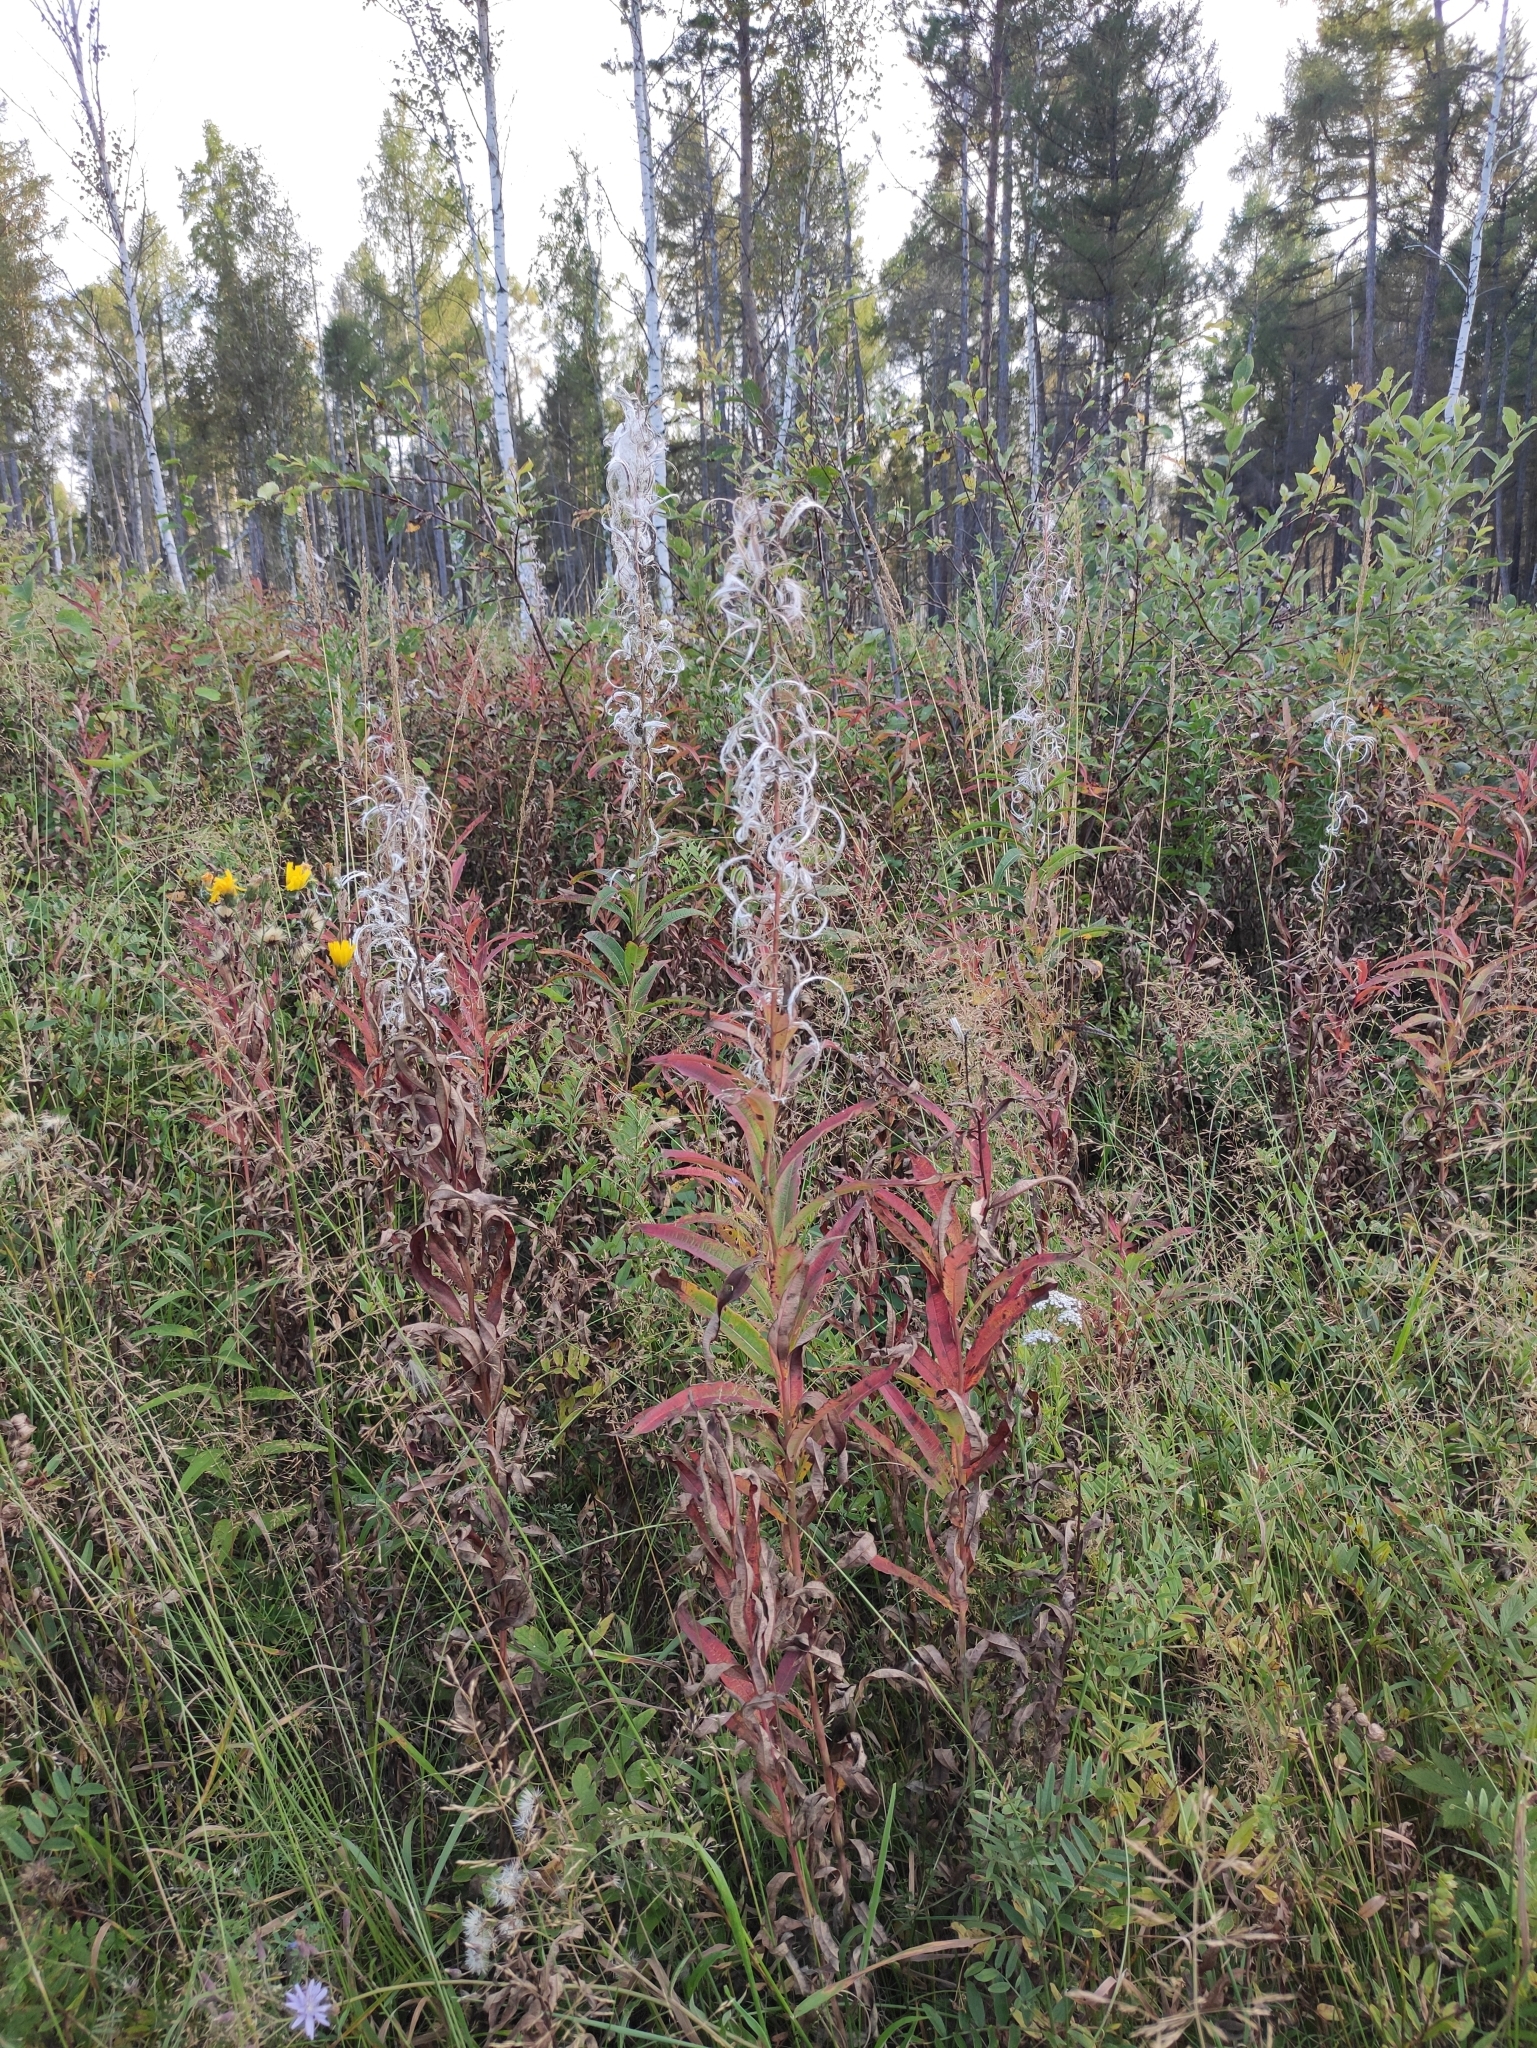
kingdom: Plantae
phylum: Tracheophyta
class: Magnoliopsida
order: Myrtales
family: Onagraceae
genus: Chamaenerion
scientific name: Chamaenerion angustifolium
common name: Fireweed
